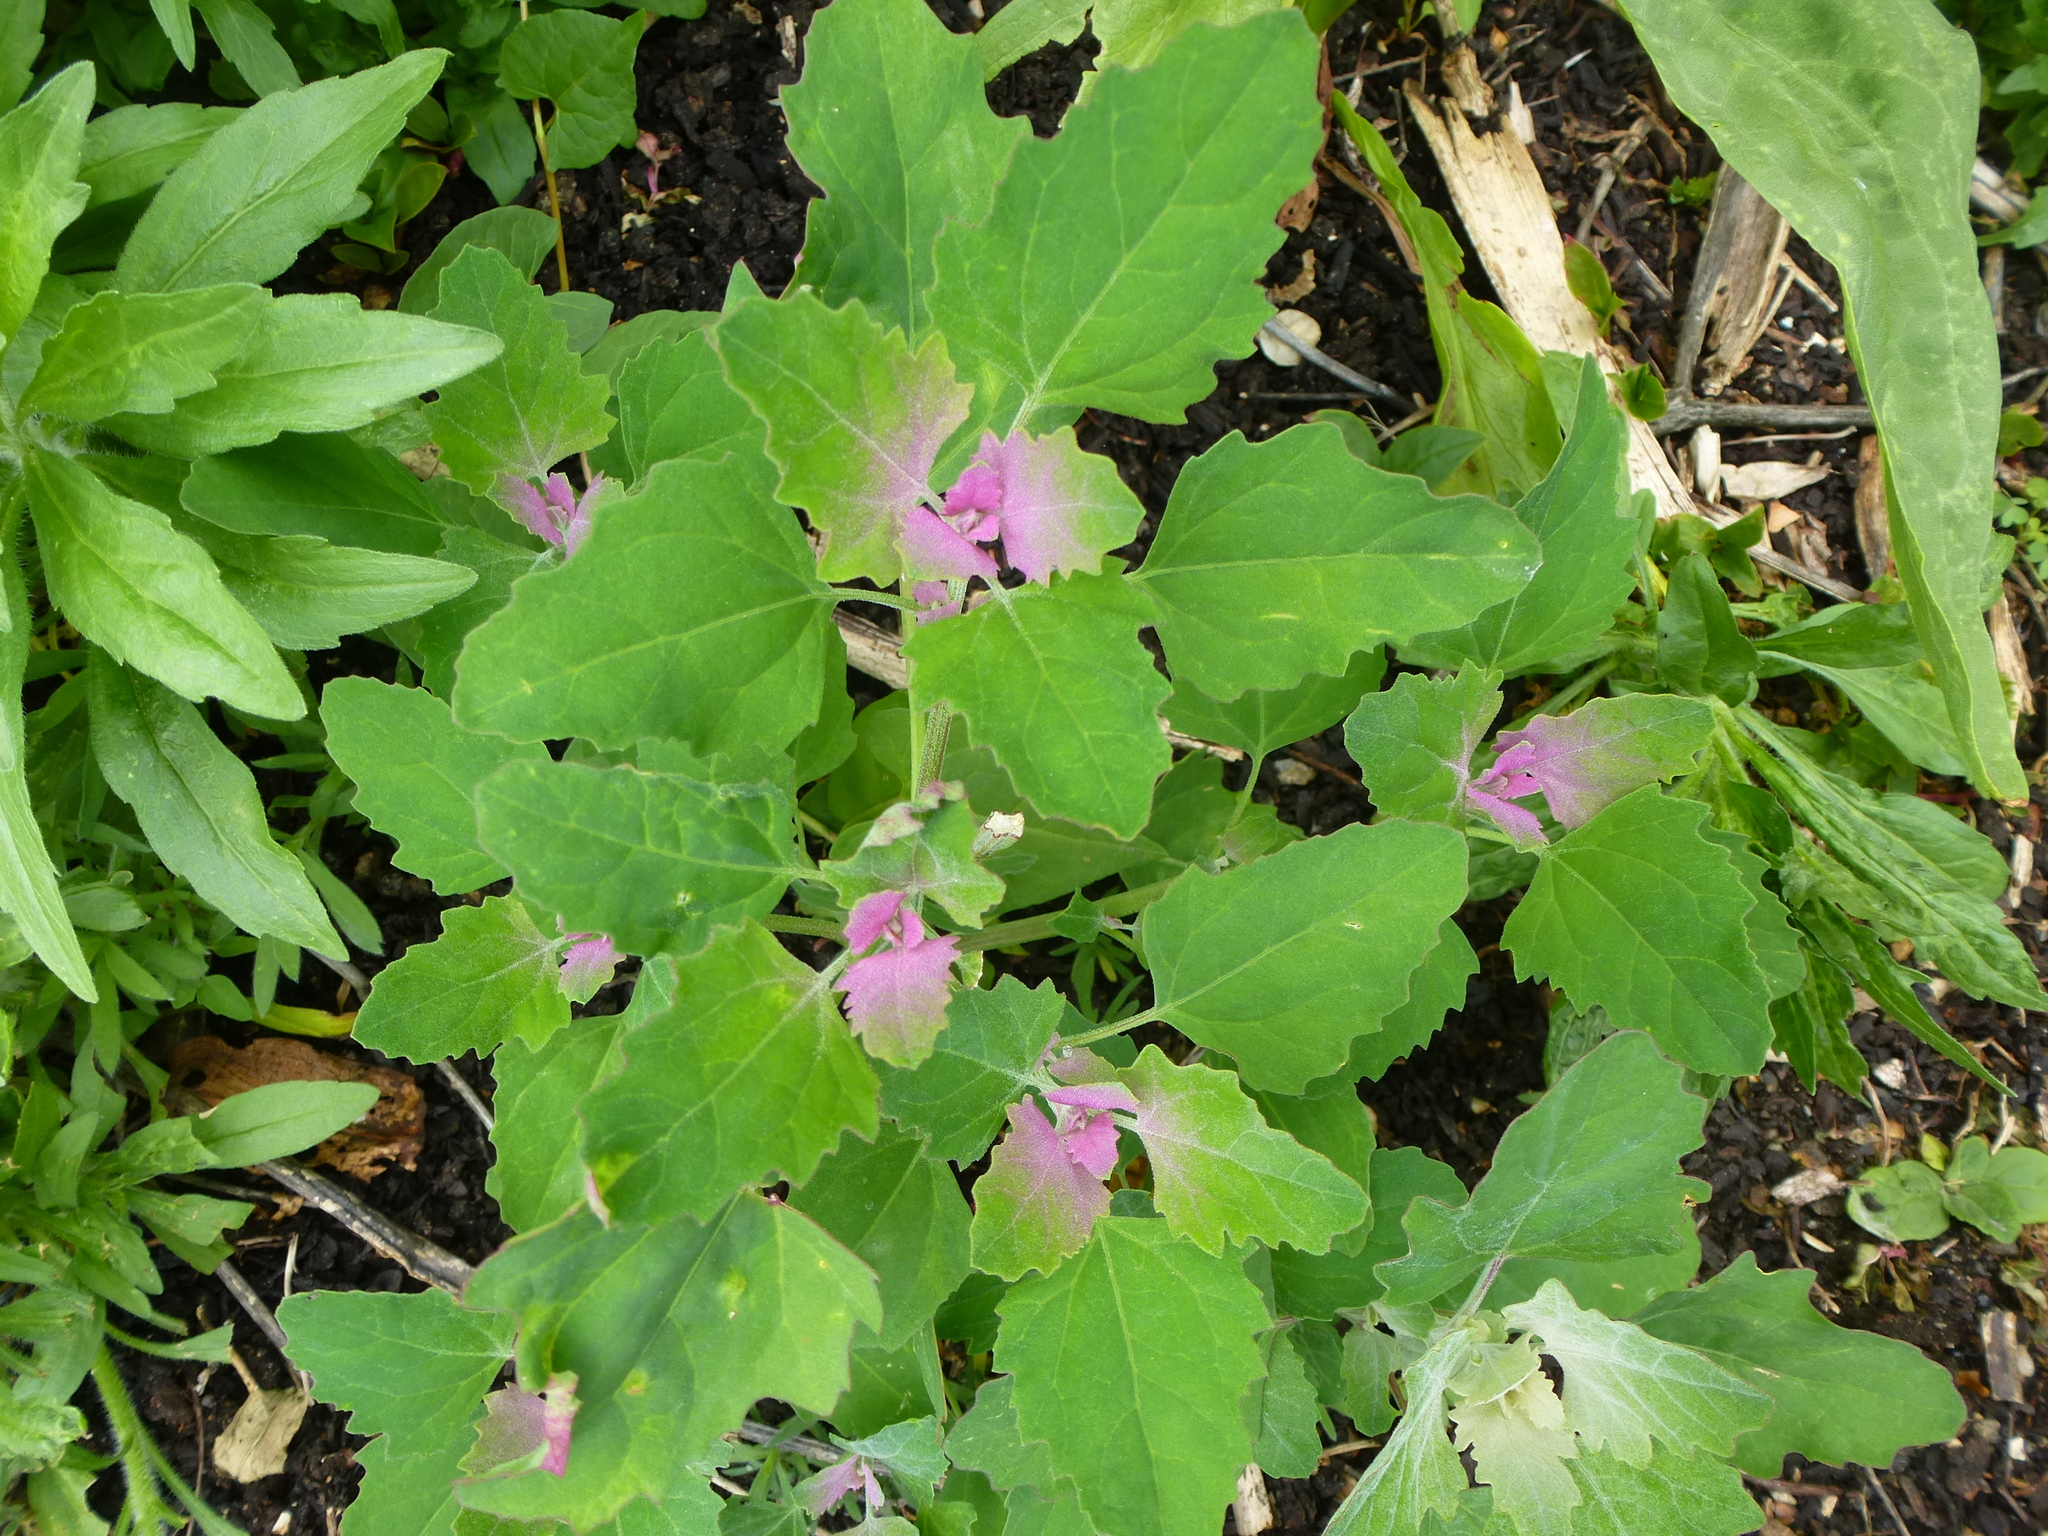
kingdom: Plantae
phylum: Tracheophyta
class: Magnoliopsida
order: Caryophyllales
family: Amaranthaceae
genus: Chenopodium
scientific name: Chenopodium album
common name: Fat-hen
